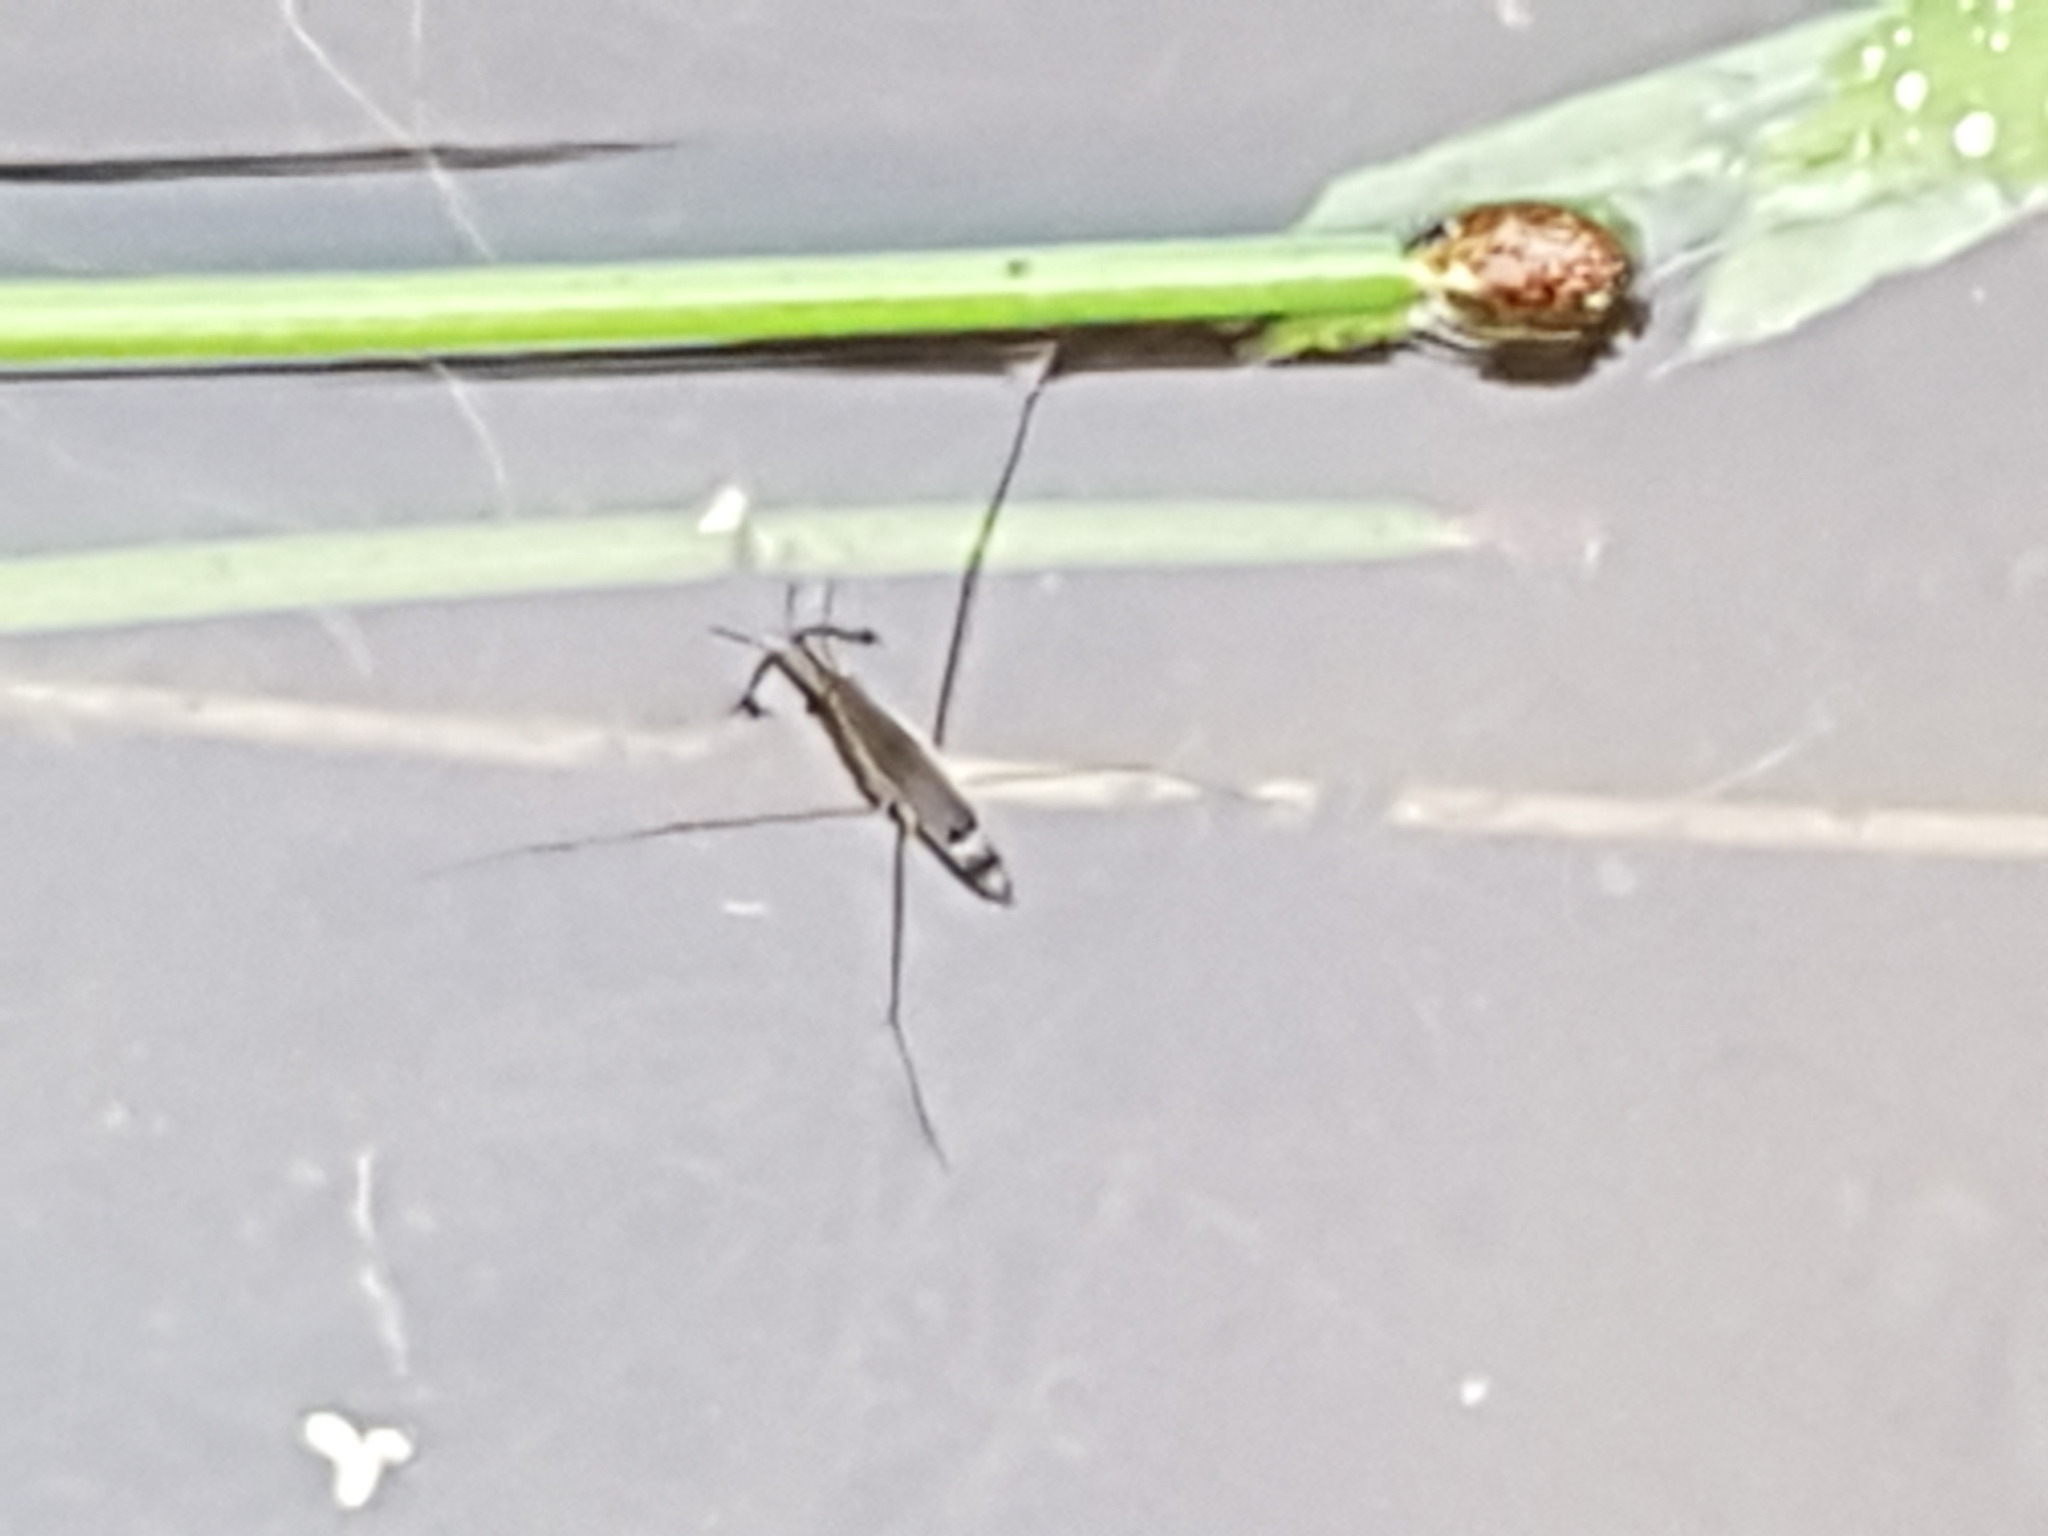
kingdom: Animalia
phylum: Arthropoda
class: Insecta
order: Hemiptera
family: Gerridae
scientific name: Gerridae
